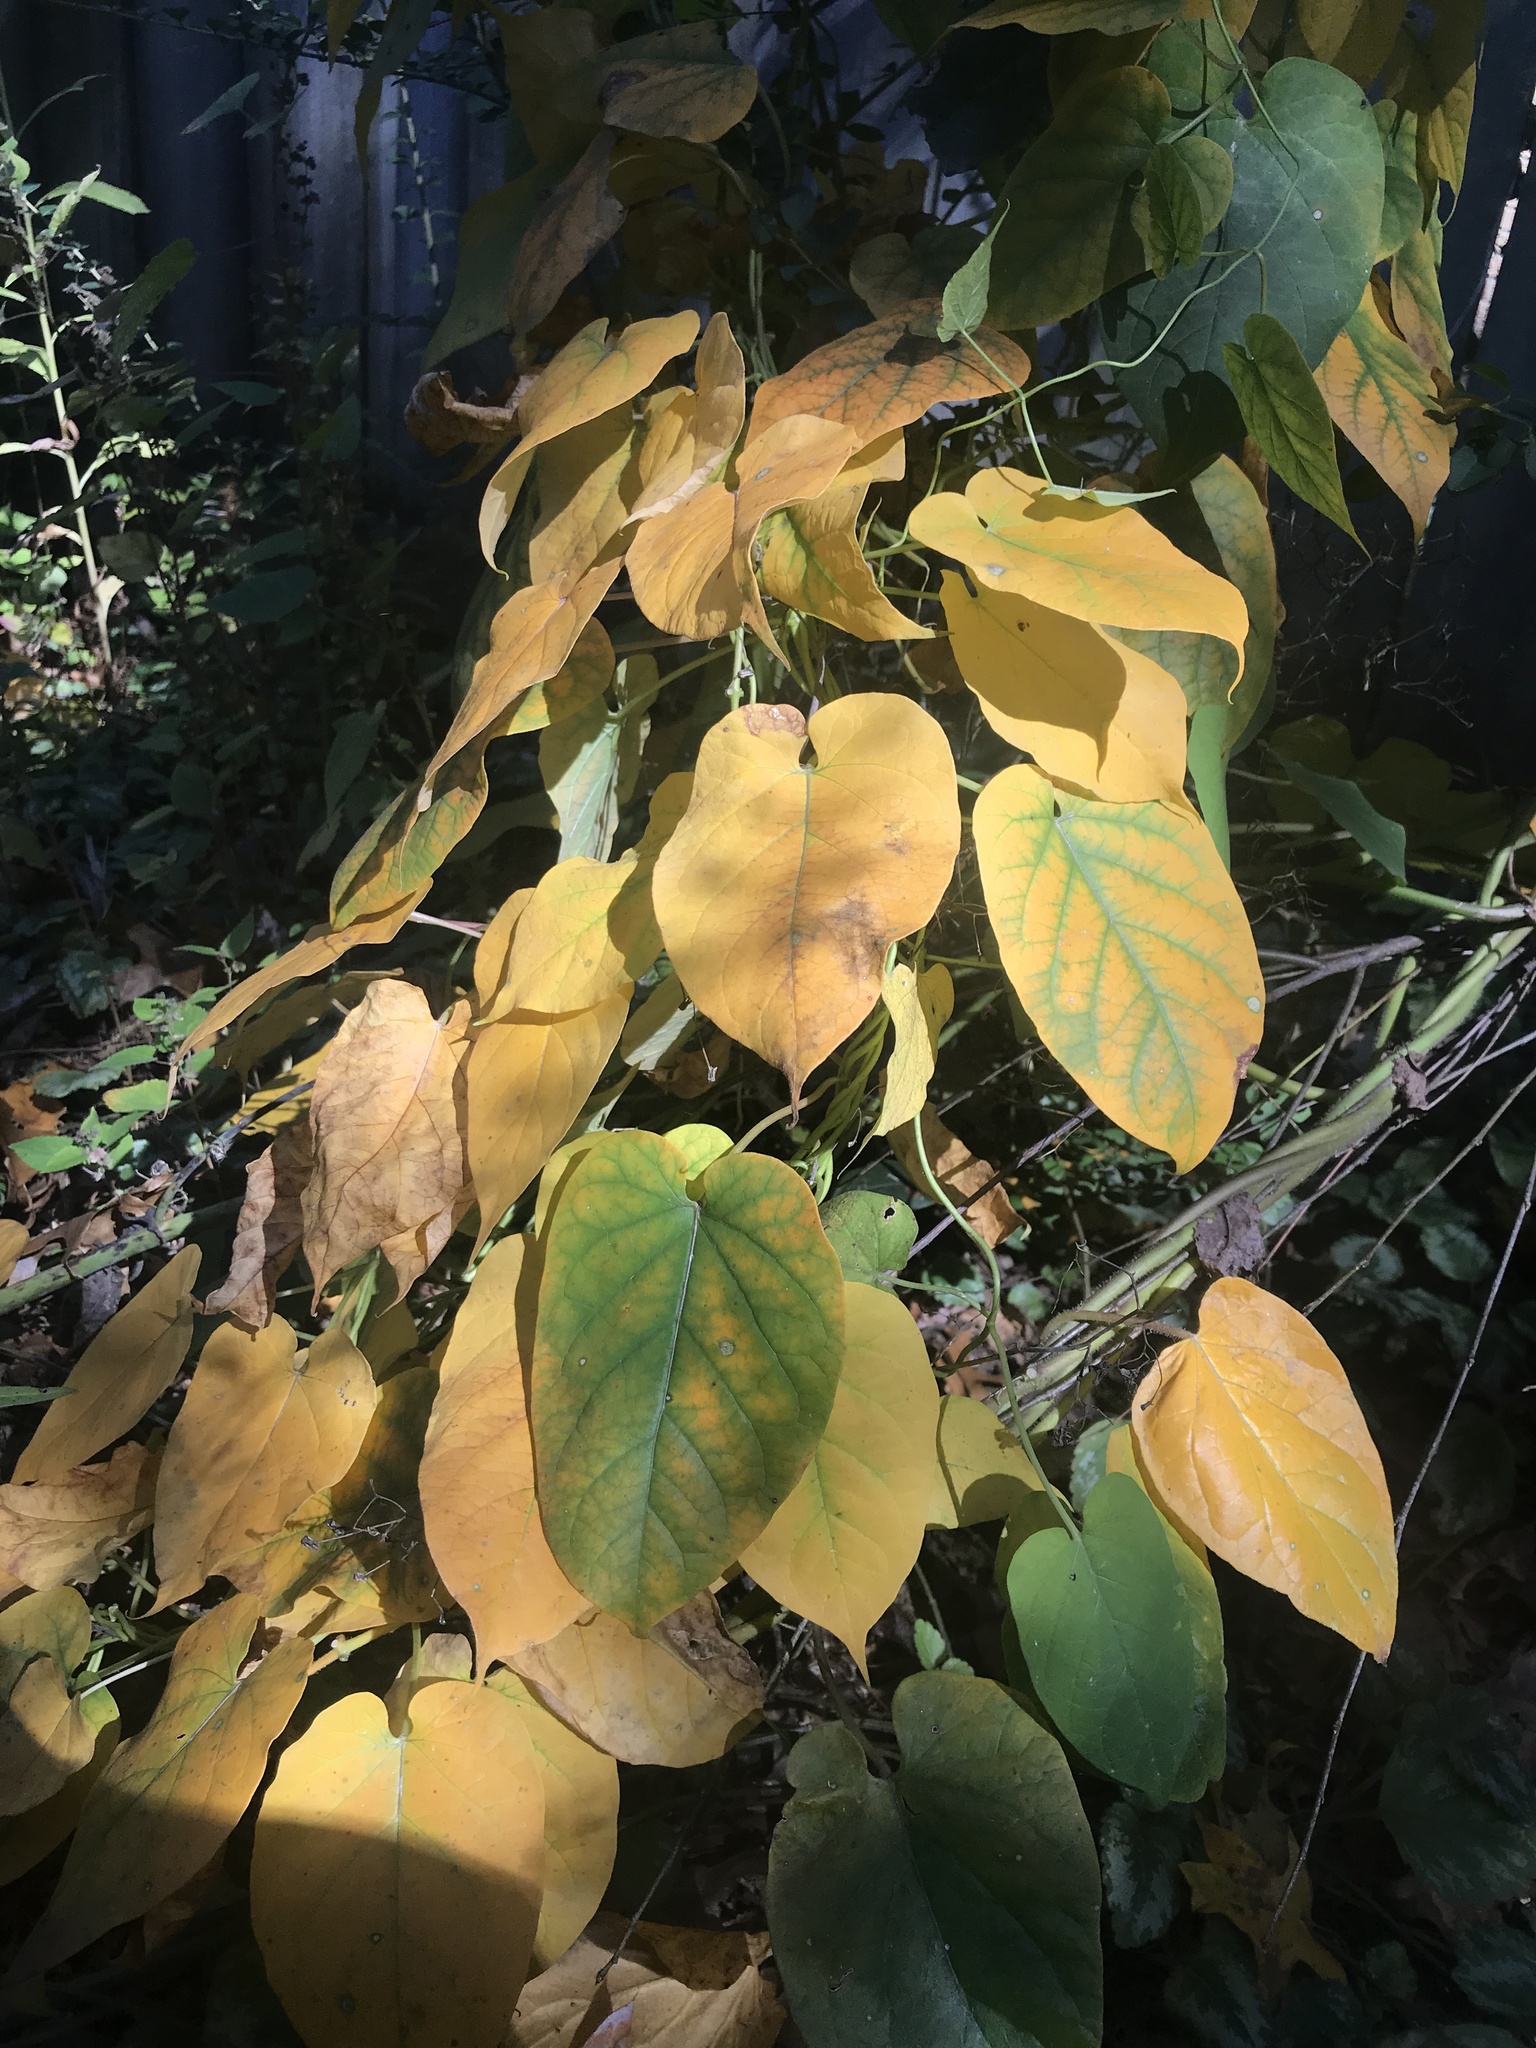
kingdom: Plantae
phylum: Tracheophyta
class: Magnoliopsida
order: Gentianales
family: Apocynaceae
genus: Gonolobus
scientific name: Gonolobus suberosus
